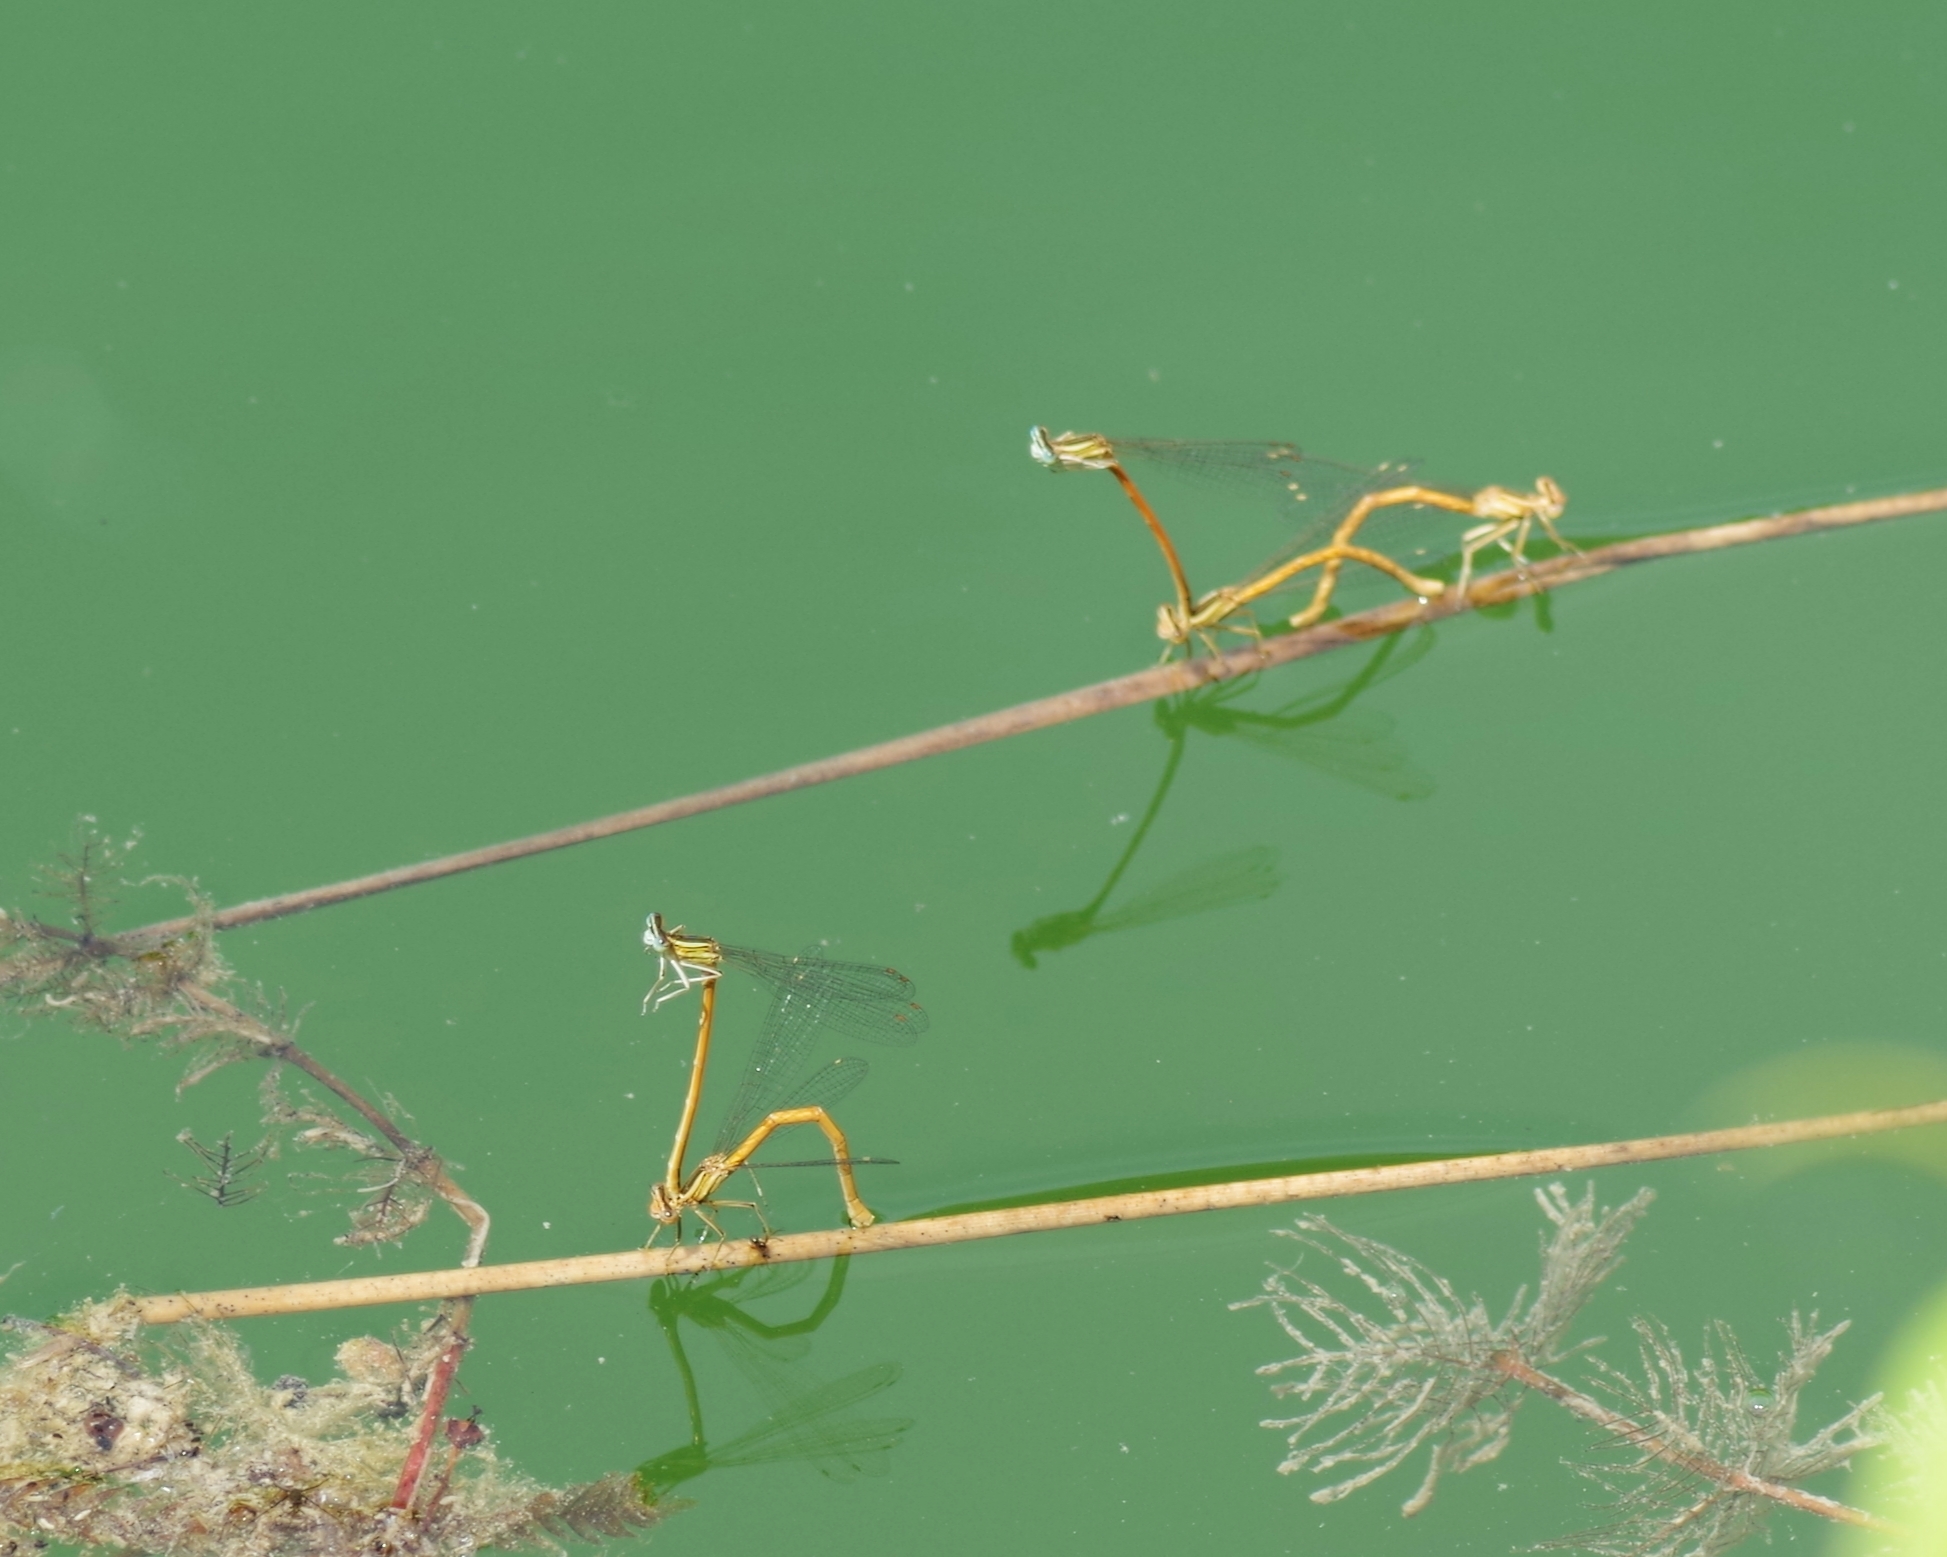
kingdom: Animalia
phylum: Arthropoda
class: Insecta
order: Odonata
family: Platycnemididae
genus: Platycnemis
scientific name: Platycnemis acutipennis
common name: Orange featherleg
